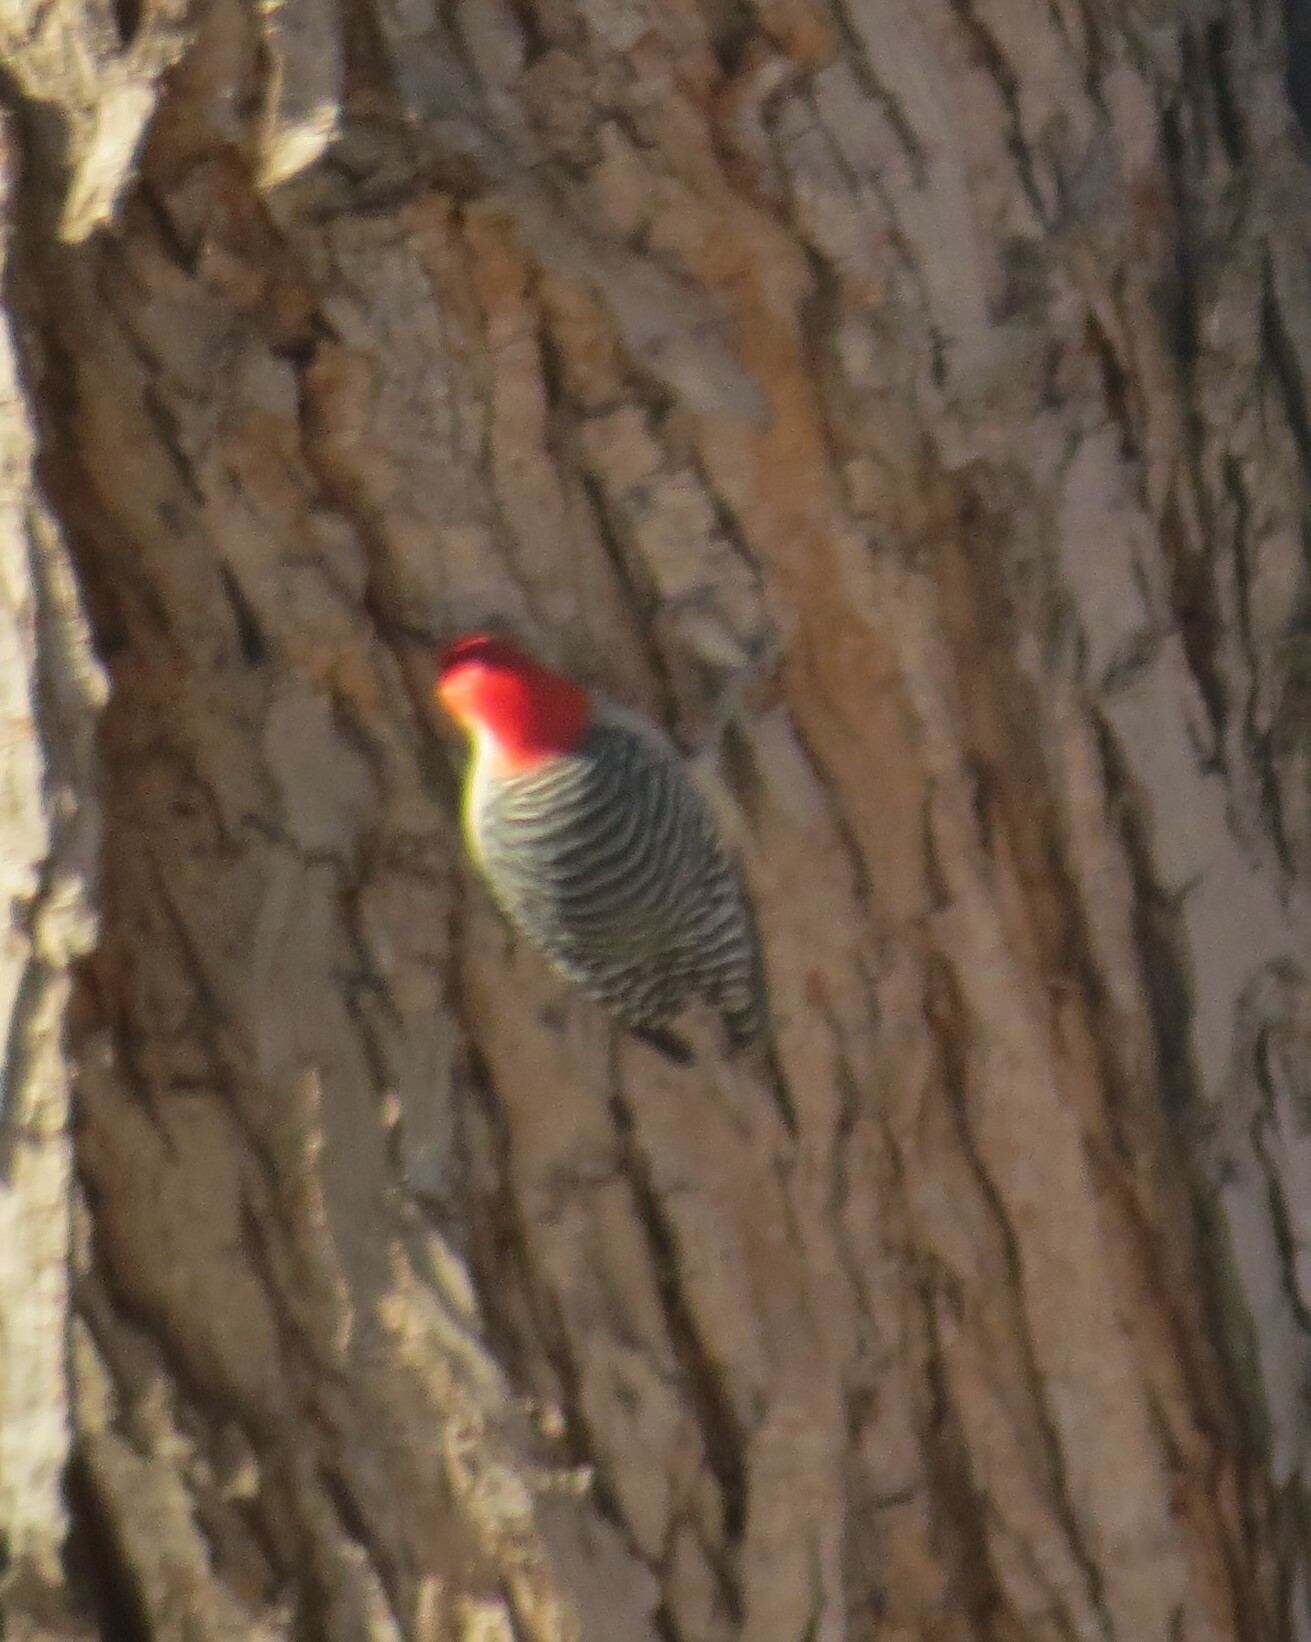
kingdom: Animalia
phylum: Chordata
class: Aves
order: Piciformes
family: Picidae
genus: Melanerpes
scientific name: Melanerpes carolinus
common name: Red-bellied woodpecker
